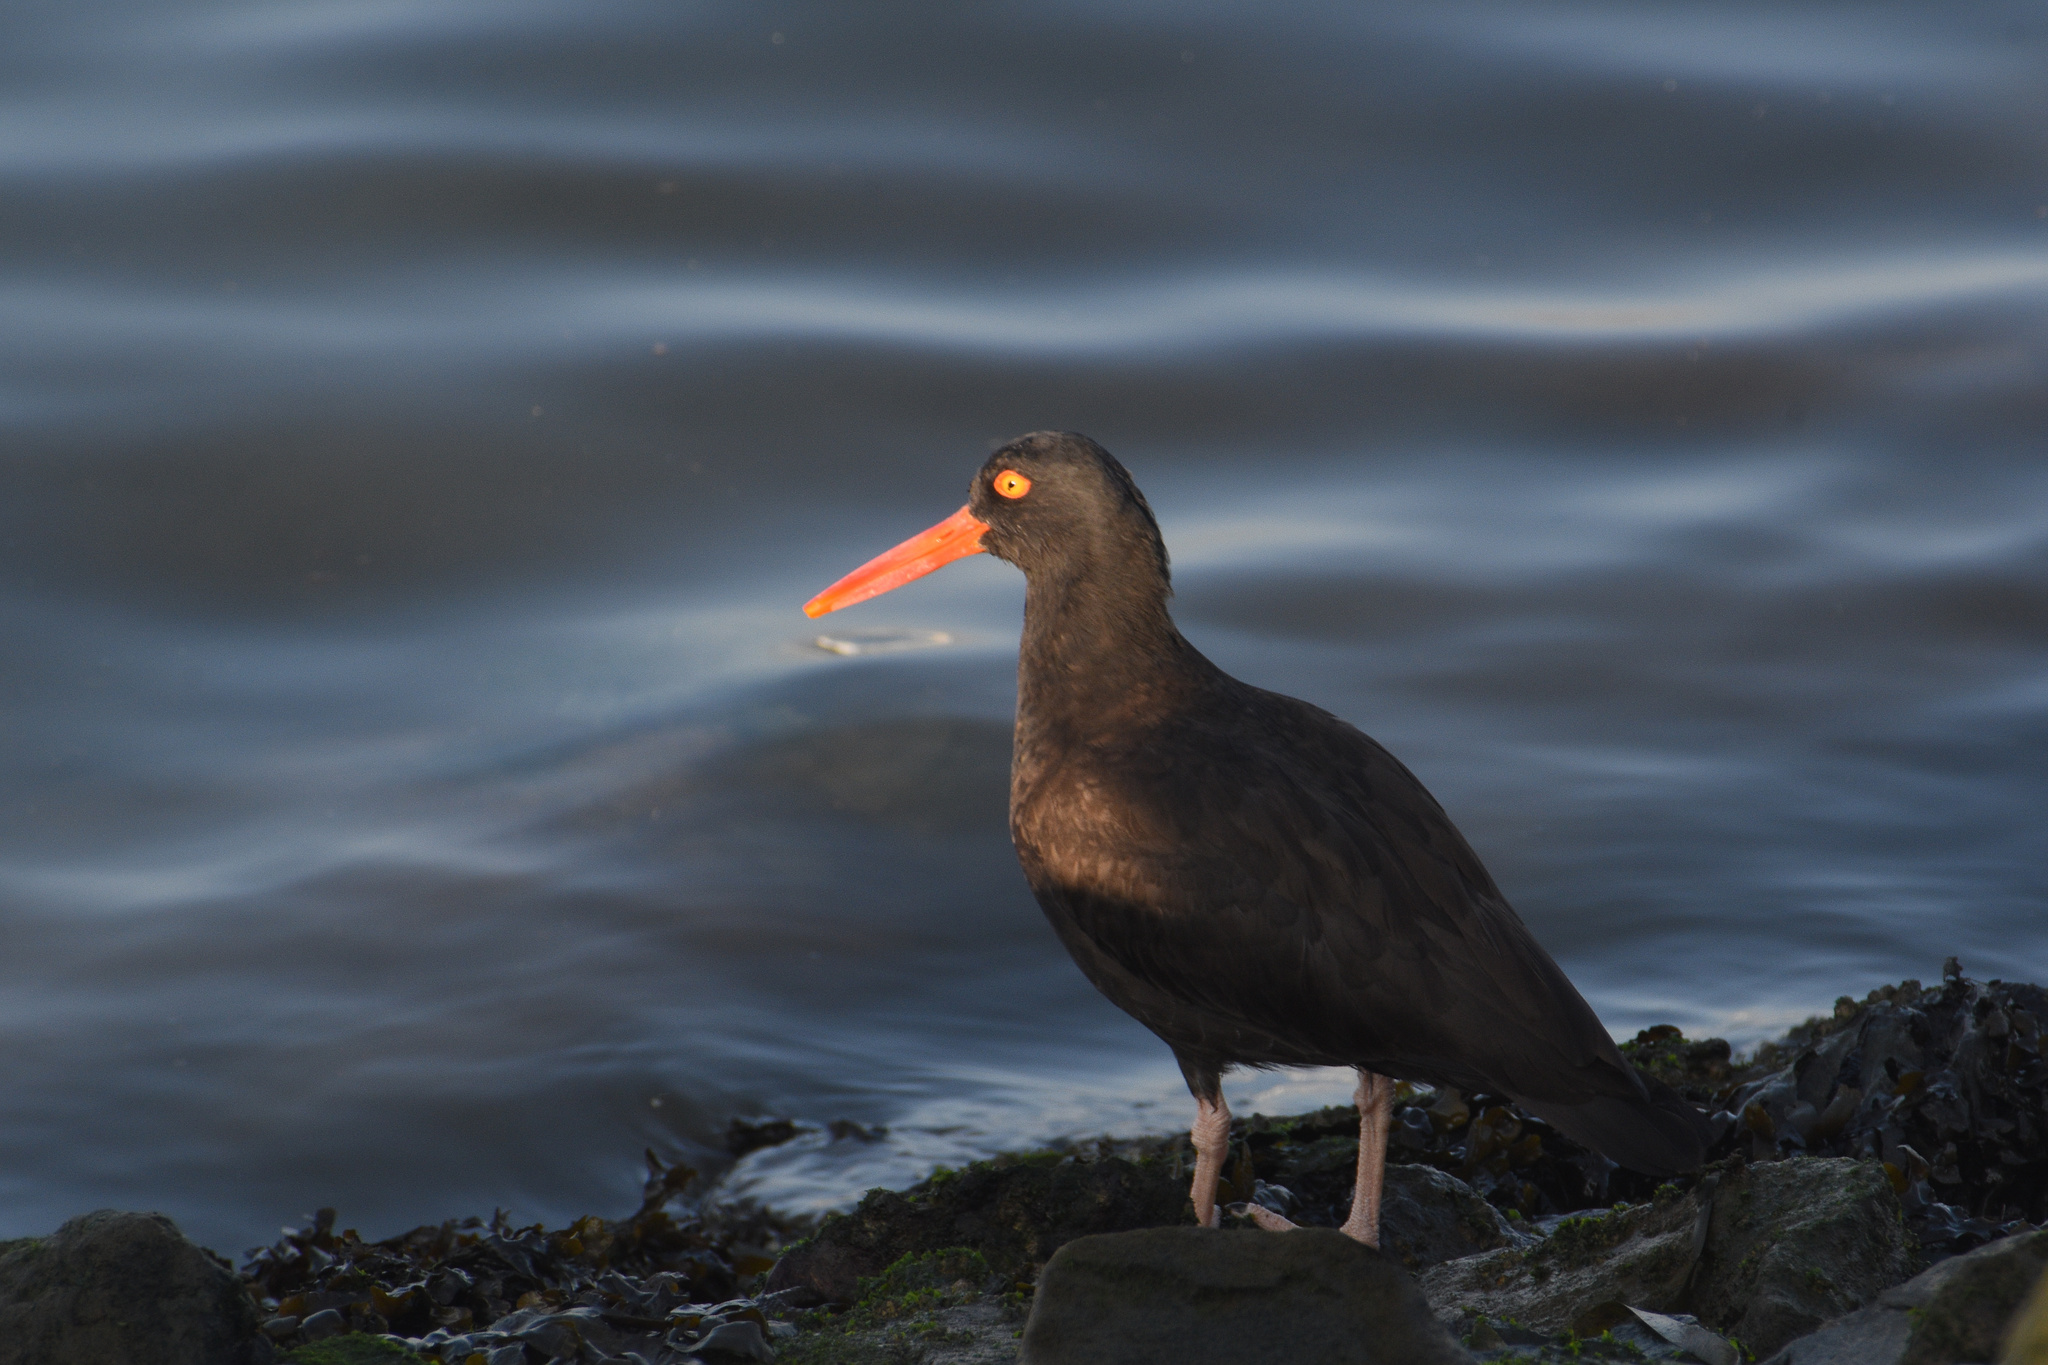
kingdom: Animalia
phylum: Chordata
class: Aves
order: Charadriiformes
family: Haematopodidae
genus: Haematopus
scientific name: Haematopus bachmani
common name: Black oystercatcher
